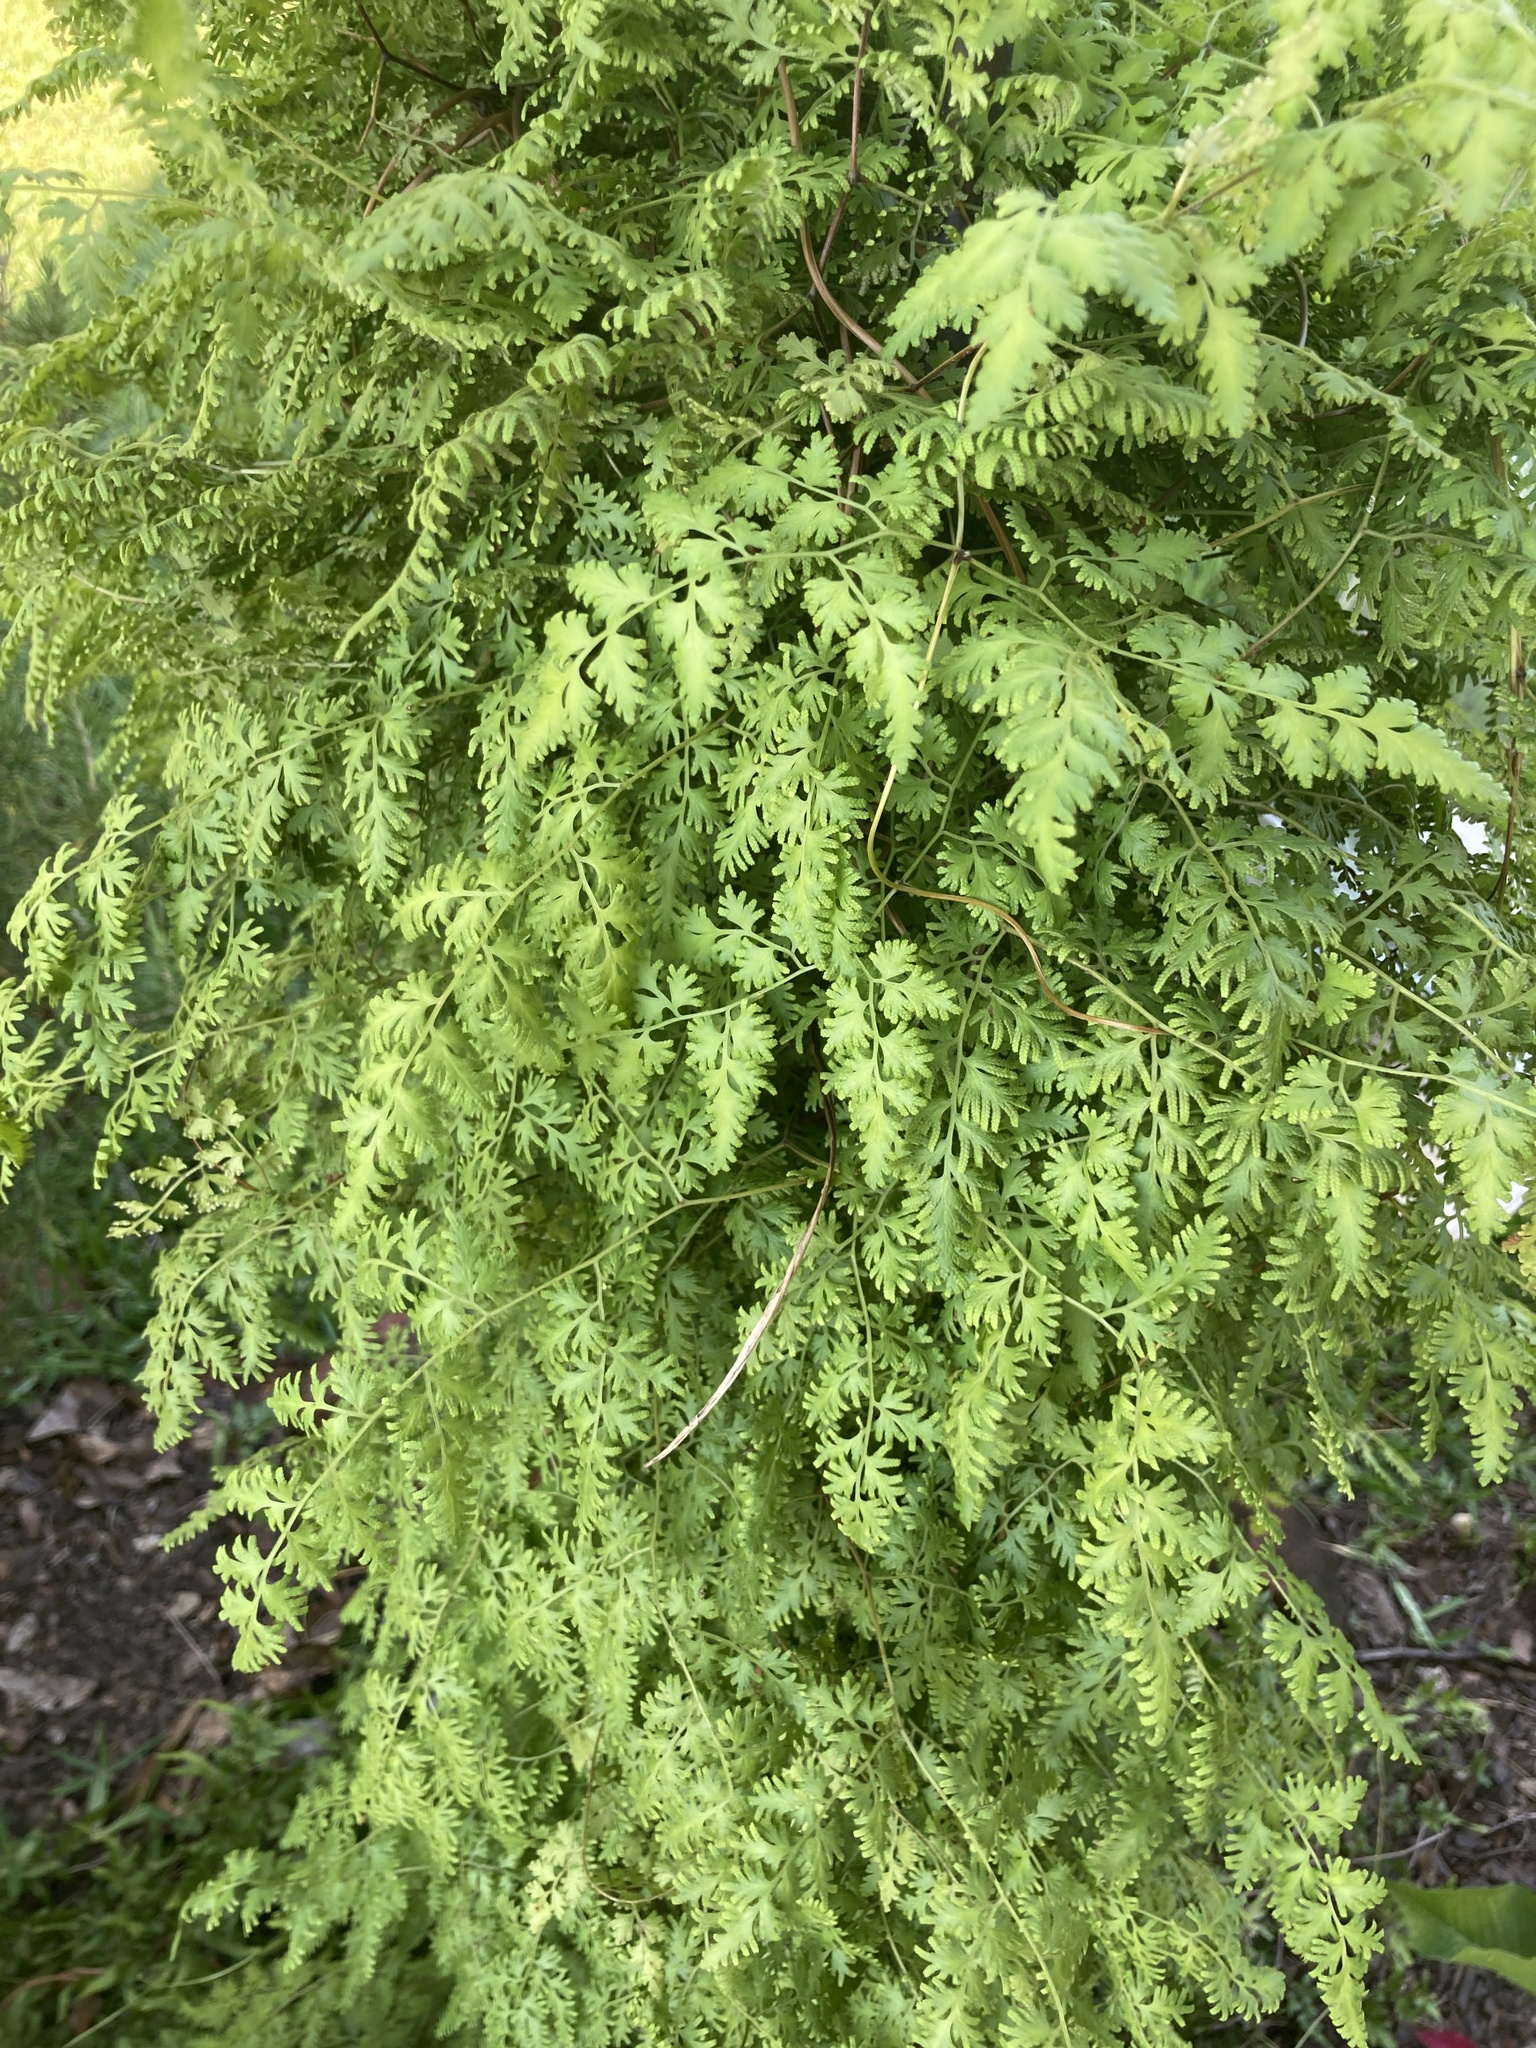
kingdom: Plantae
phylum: Tracheophyta
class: Polypodiopsida
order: Schizaeales
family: Lygodiaceae
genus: Lygodium
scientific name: Lygodium japonicum
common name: Japanese climbing fern
